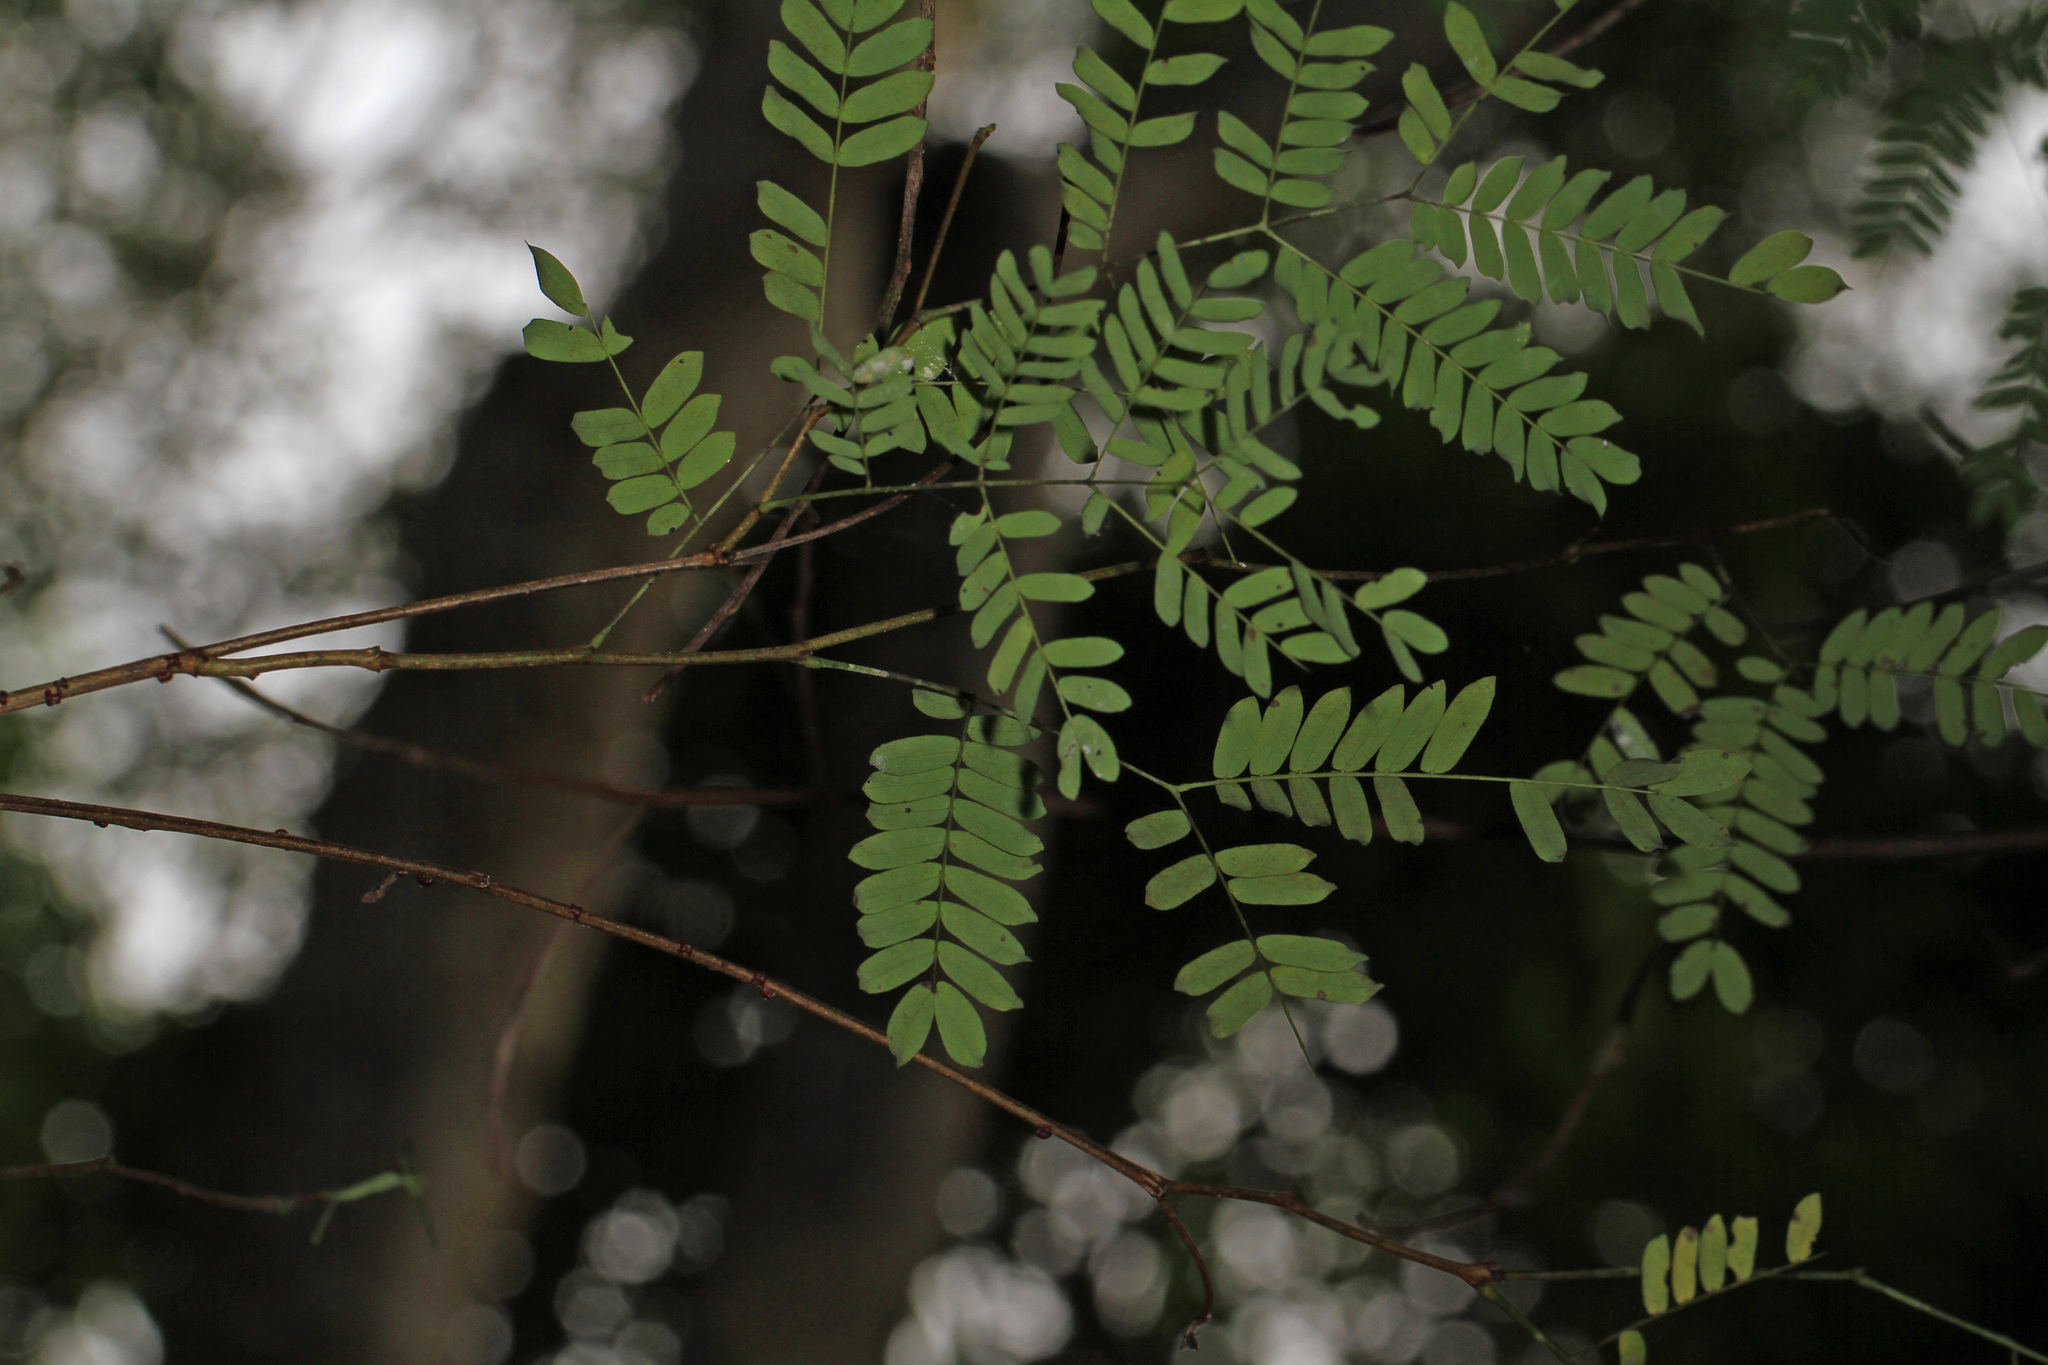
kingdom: Plantae
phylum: Tracheophyta
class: Magnoliopsida
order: Fabales
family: Fabaceae
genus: Lysiloma
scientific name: Lysiloma latisiliquum
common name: Wild tamarind
